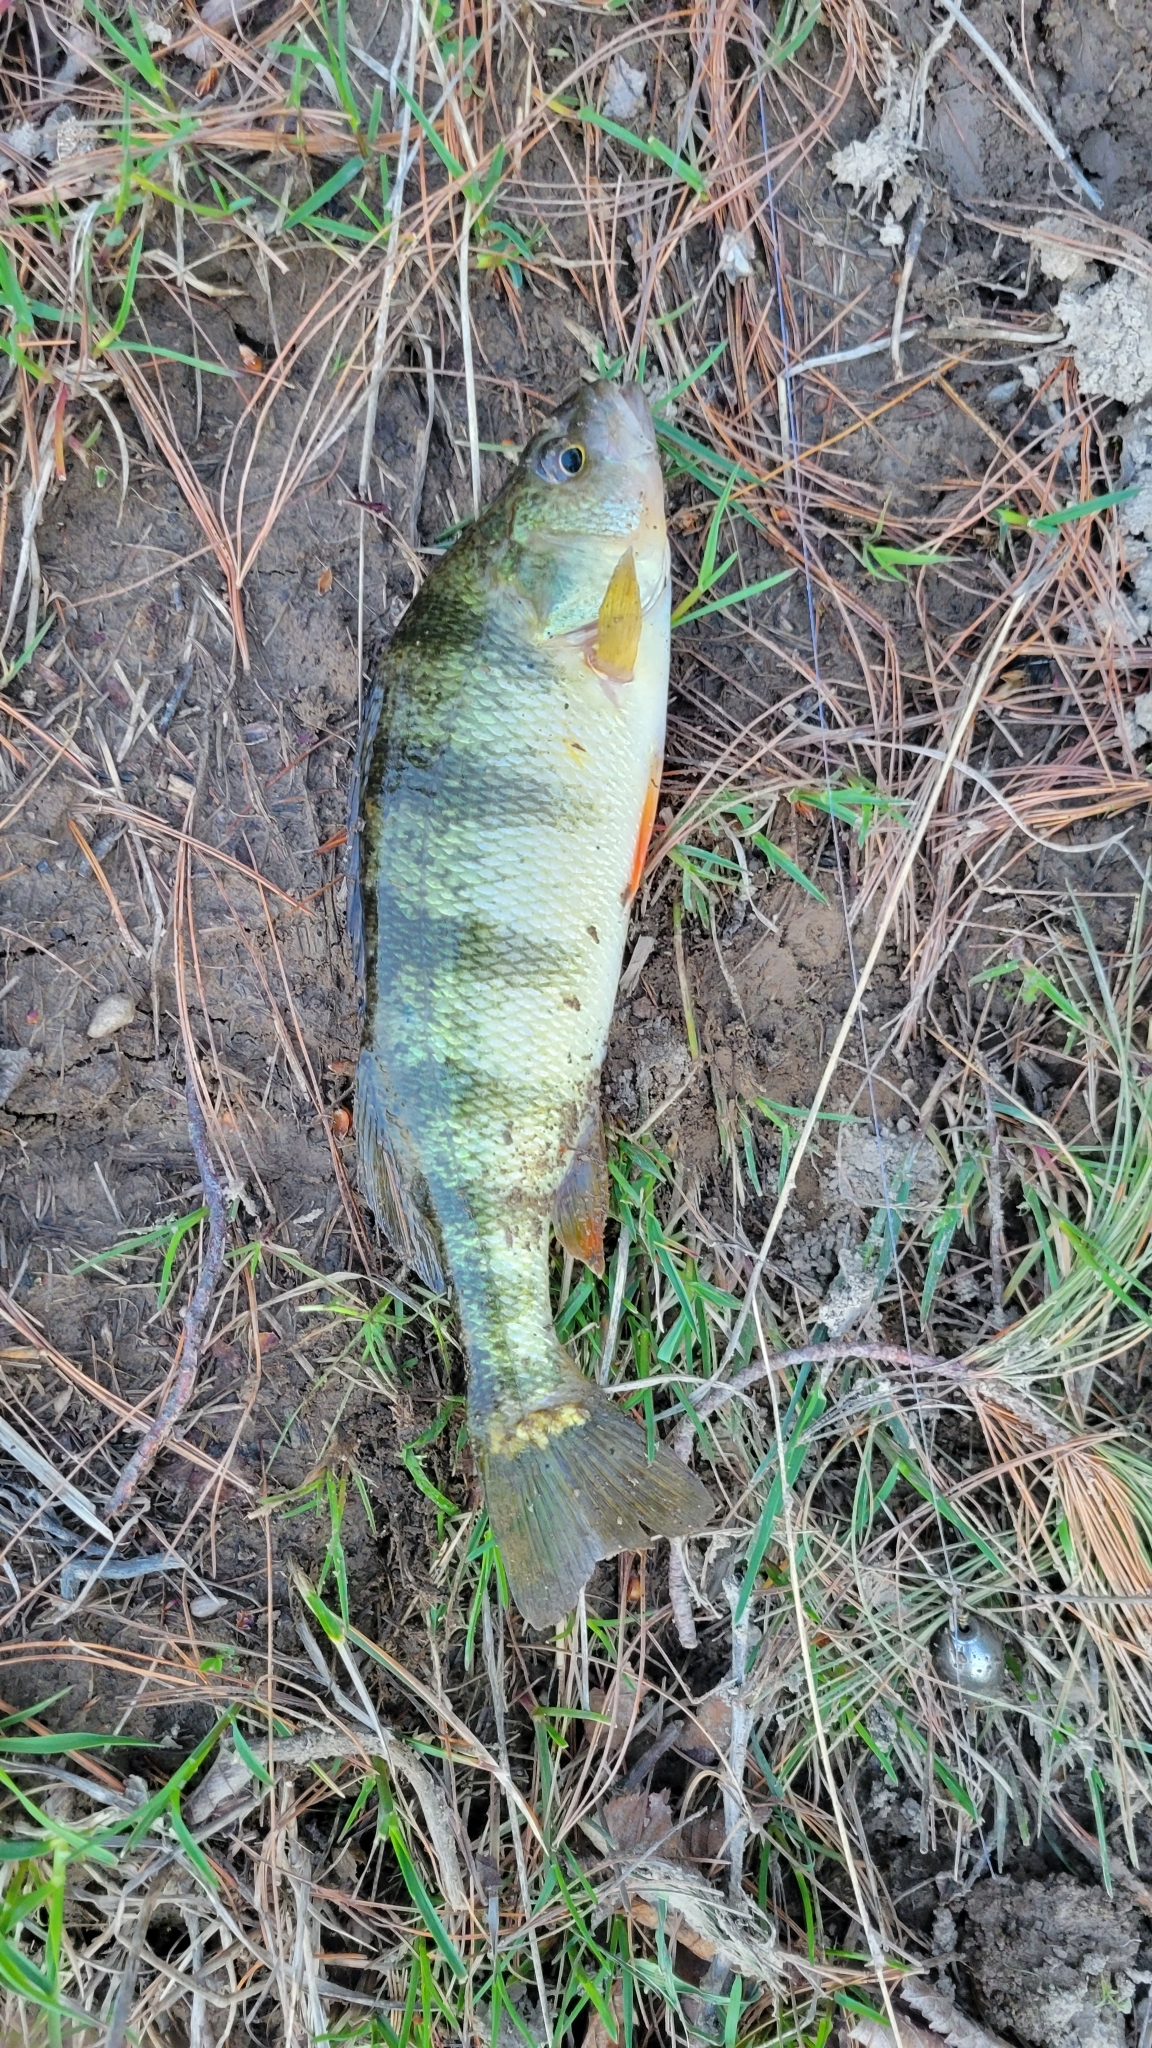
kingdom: Animalia
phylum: Chordata
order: Perciformes
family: Percidae
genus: Perca
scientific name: Perca flavescens
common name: Yellow perch
